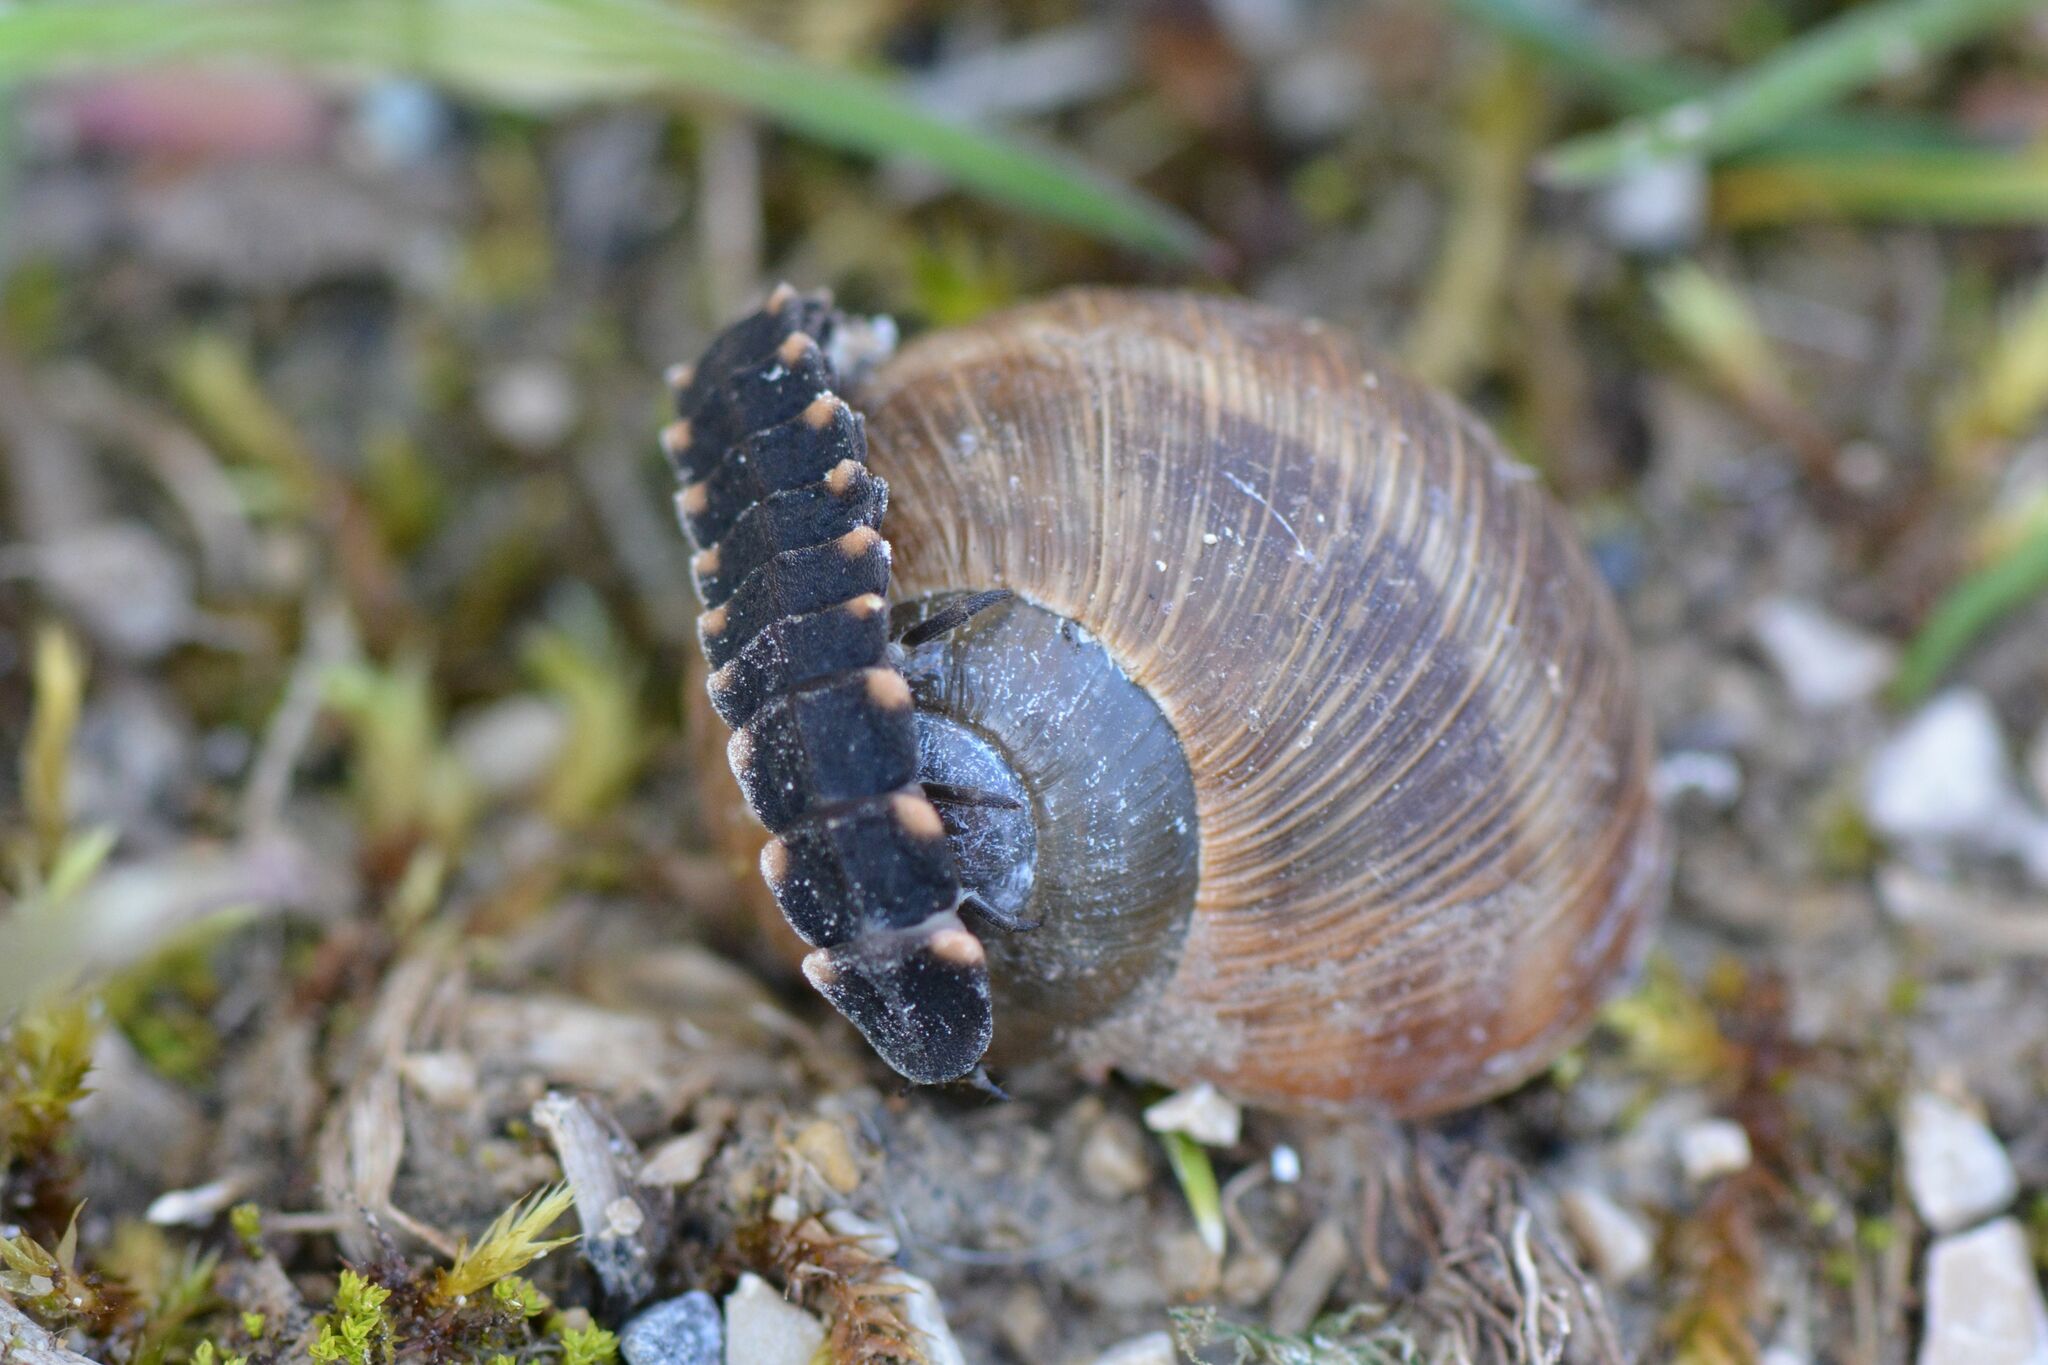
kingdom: Animalia
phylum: Arthropoda
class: Insecta
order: Coleoptera
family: Lampyridae
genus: Lampyris
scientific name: Lampyris noctiluca
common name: Glow-worm
